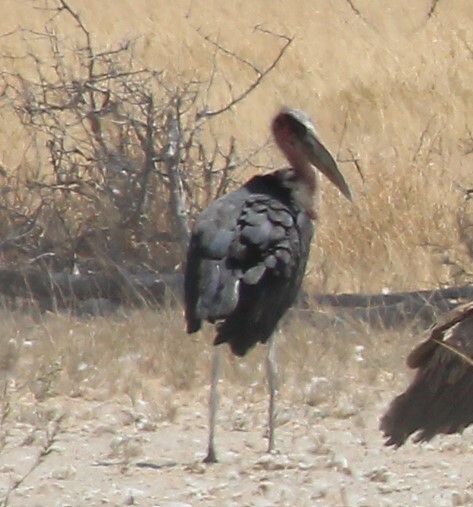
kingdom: Animalia
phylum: Chordata
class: Aves
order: Ciconiiformes
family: Ciconiidae
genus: Leptoptilos
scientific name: Leptoptilos crumenifer
